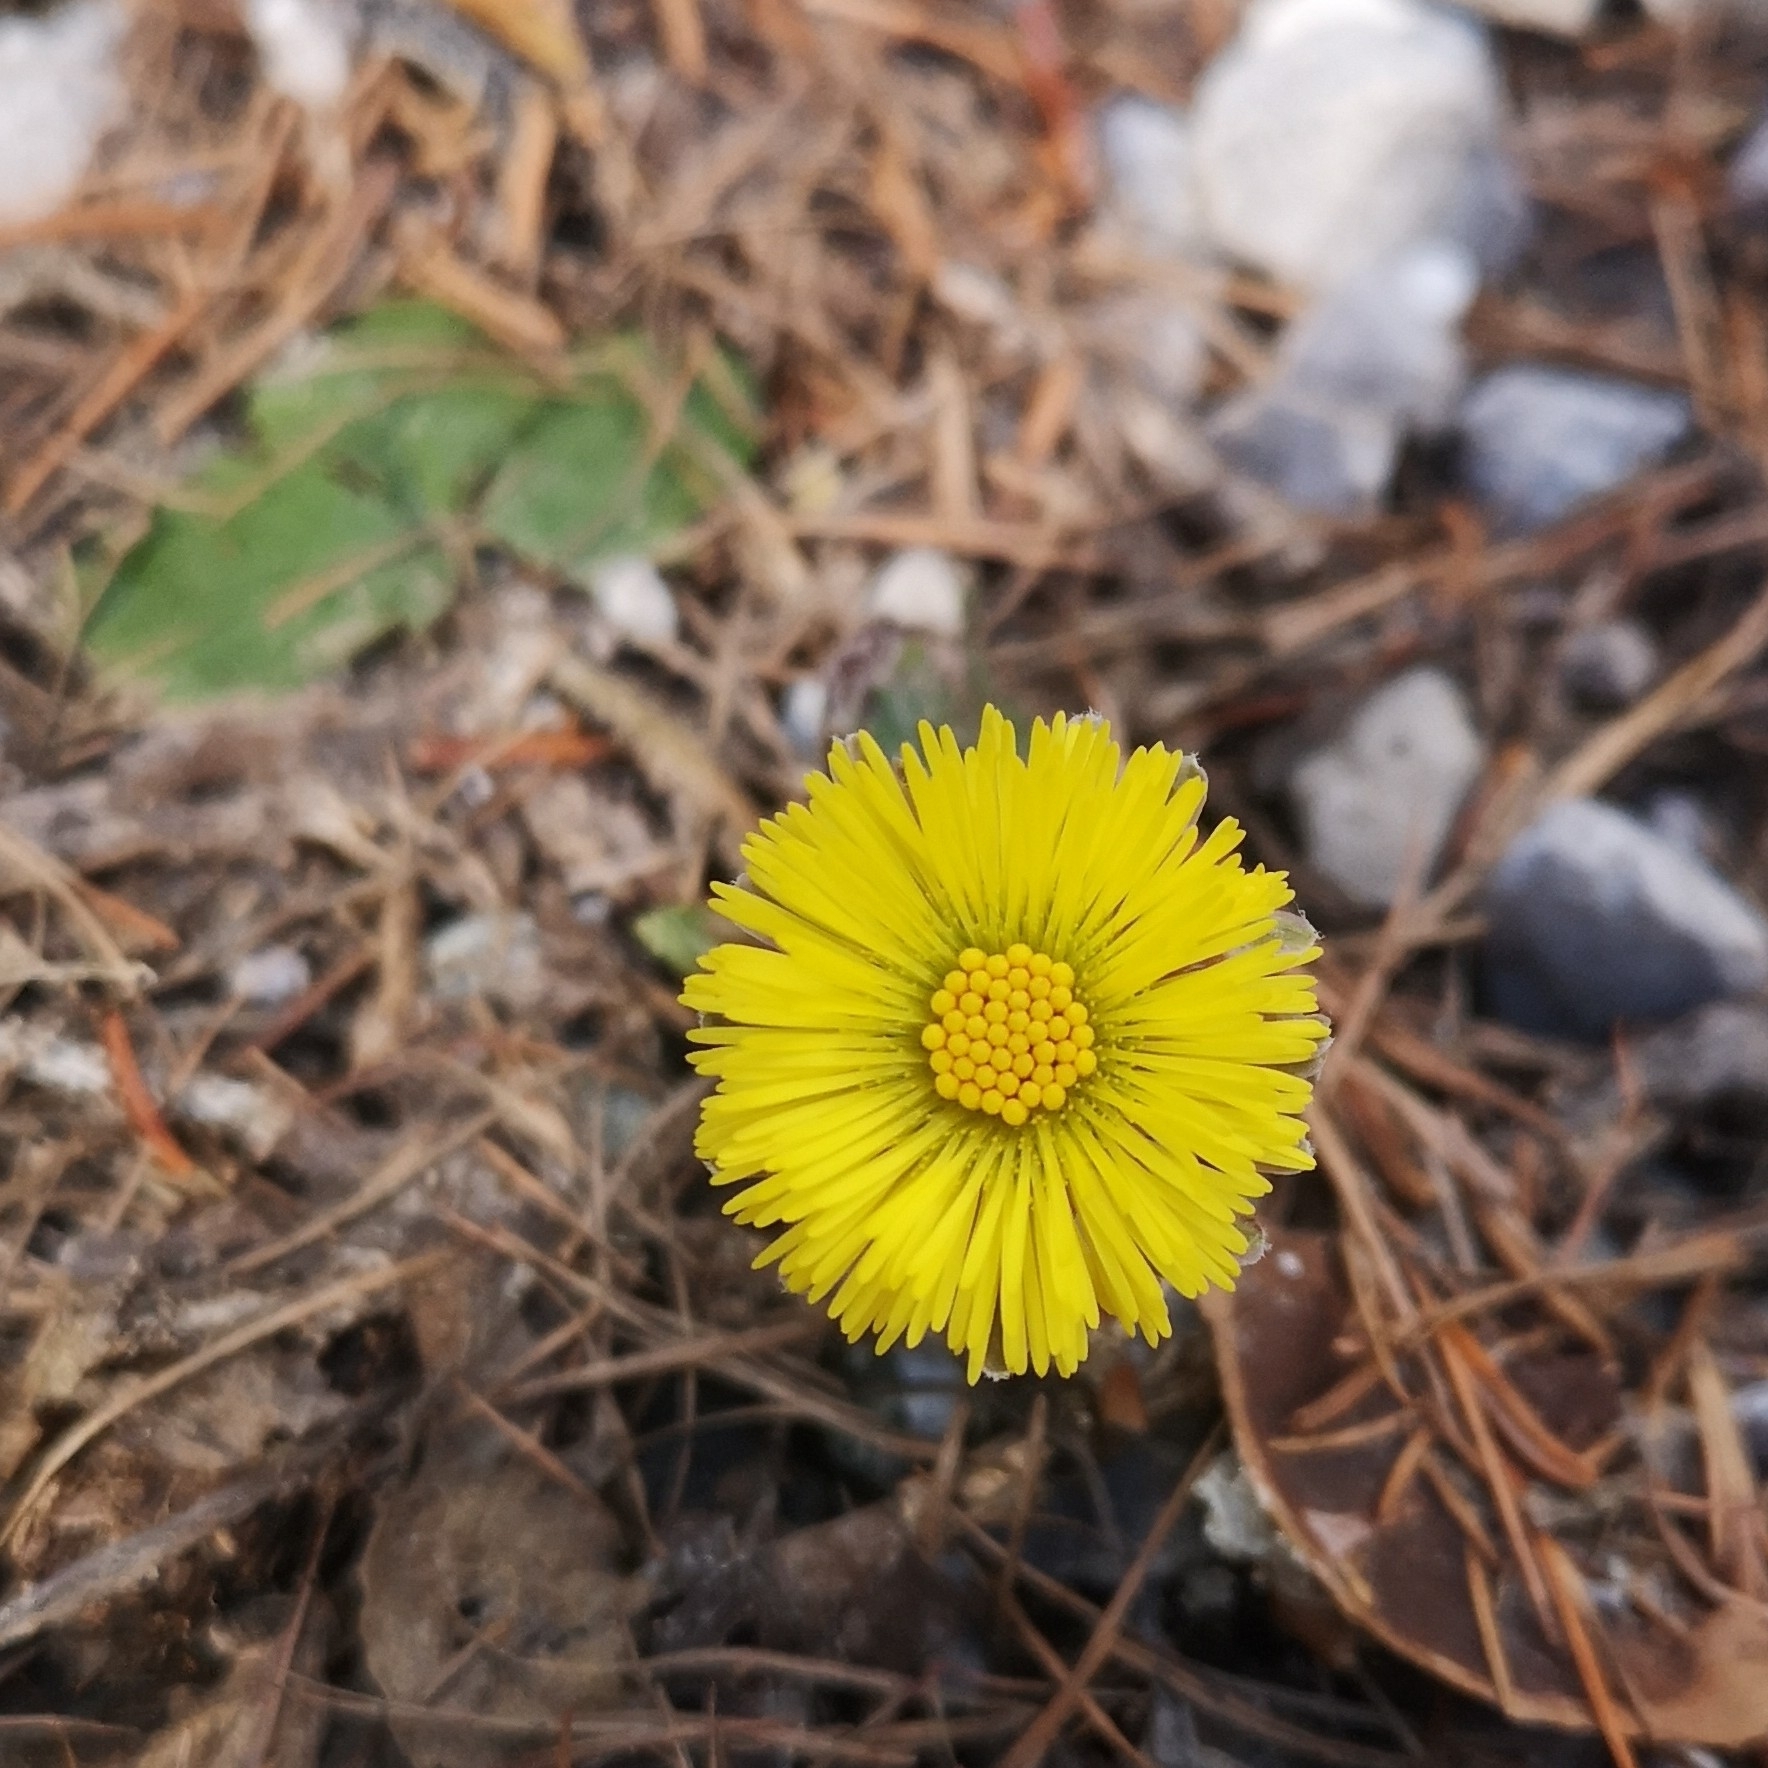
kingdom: Plantae
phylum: Tracheophyta
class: Magnoliopsida
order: Asterales
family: Asteraceae
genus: Tussilago
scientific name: Tussilago farfara
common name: Coltsfoot
